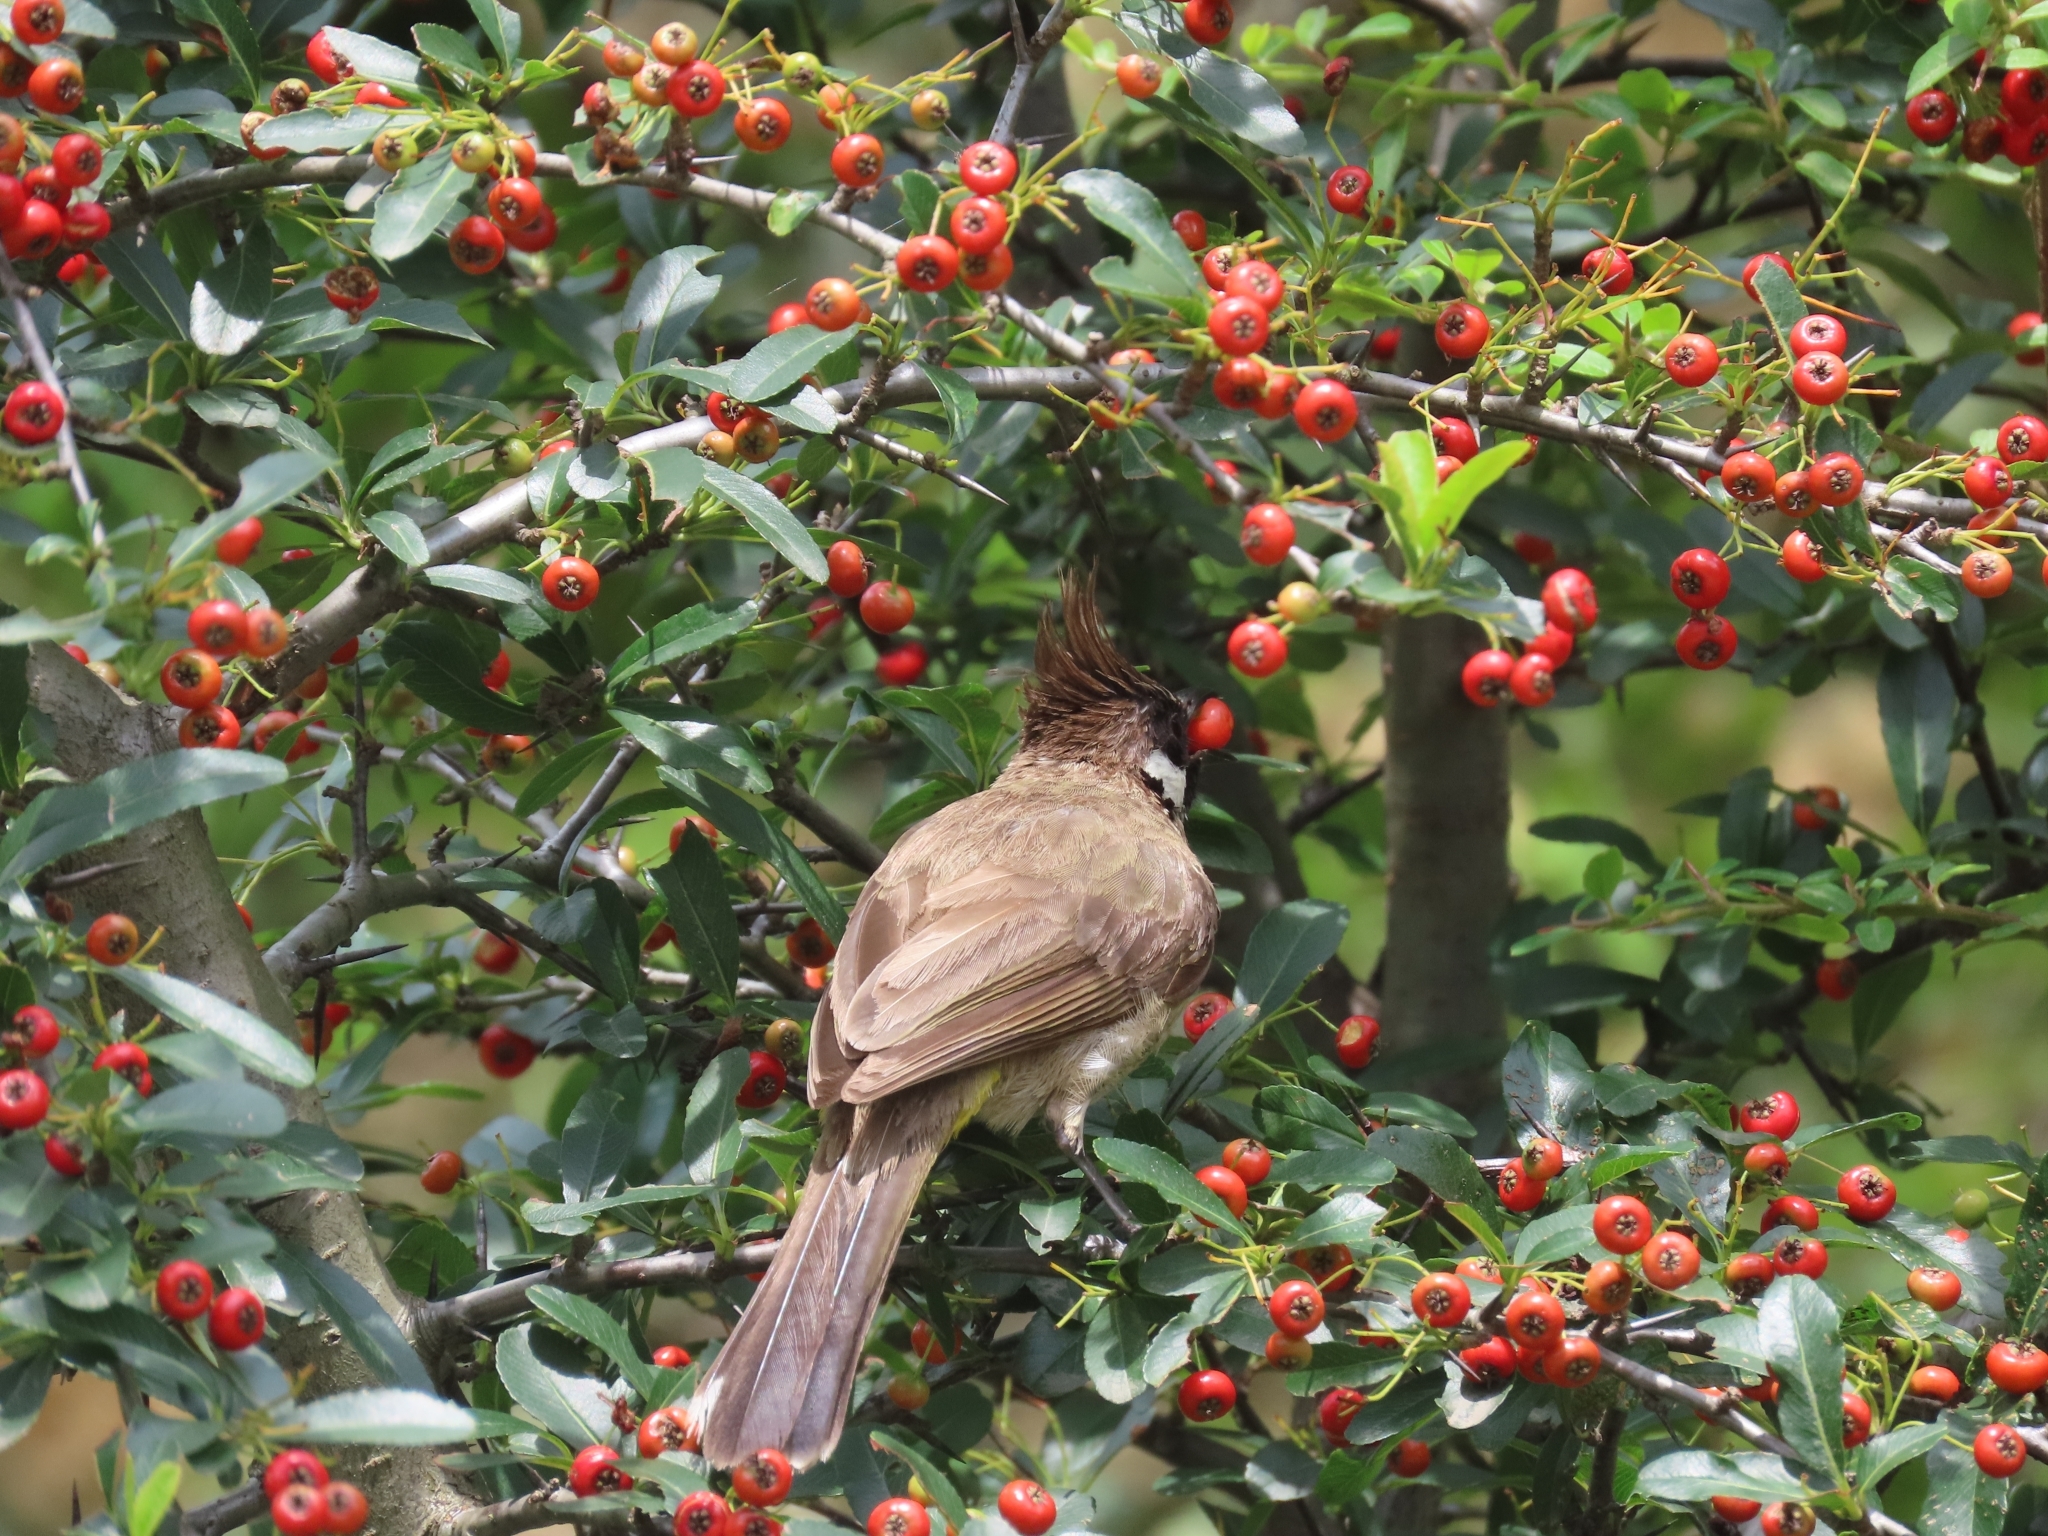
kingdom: Animalia
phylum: Chordata
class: Aves
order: Passeriformes
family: Pycnonotidae
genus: Pycnonotus
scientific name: Pycnonotus leucogenys
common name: Himalayan bulbul
